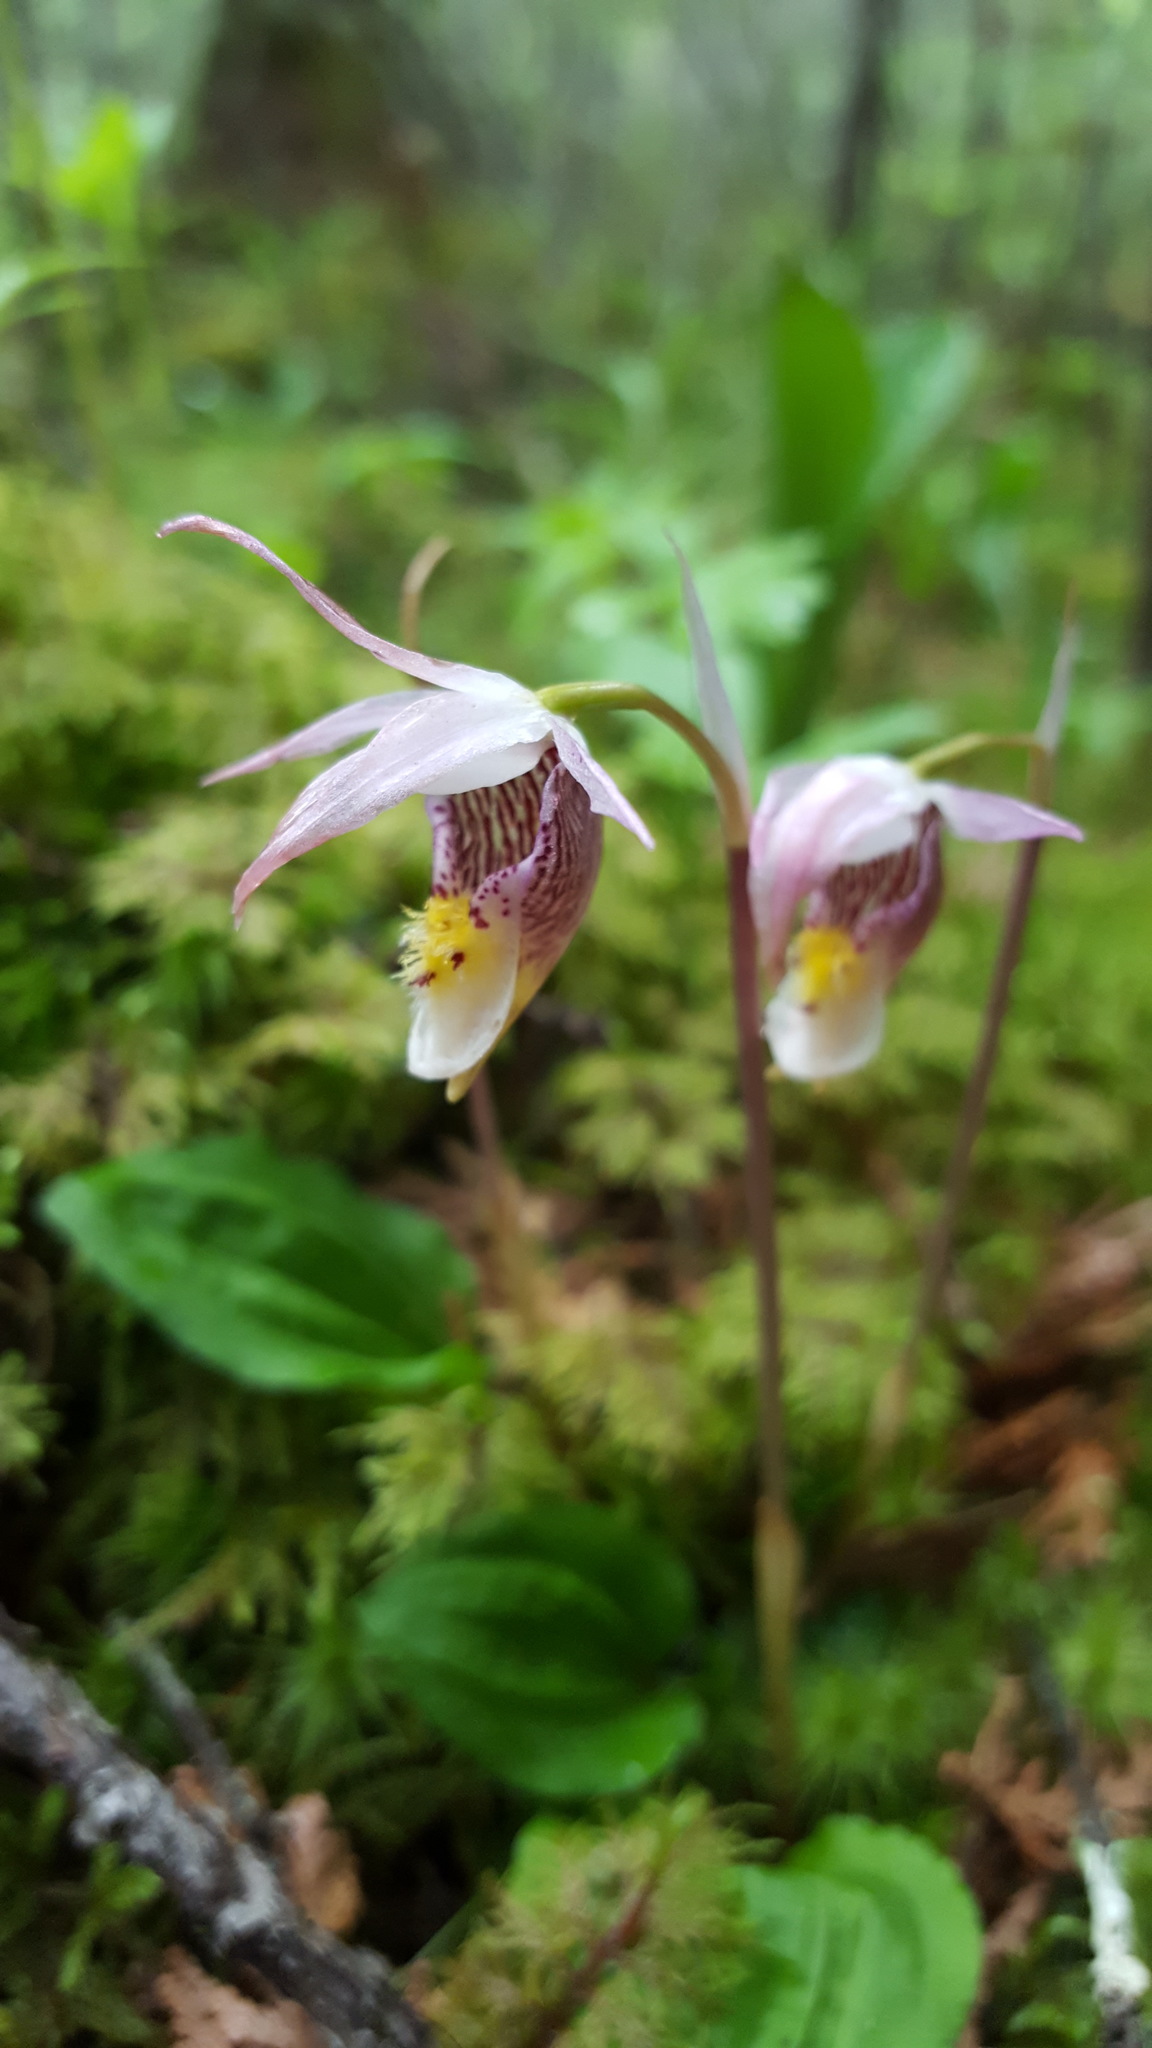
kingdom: Plantae
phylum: Tracheophyta
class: Liliopsida
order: Asparagales
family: Orchidaceae
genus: Calypso
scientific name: Calypso bulbosa
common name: Calypso
